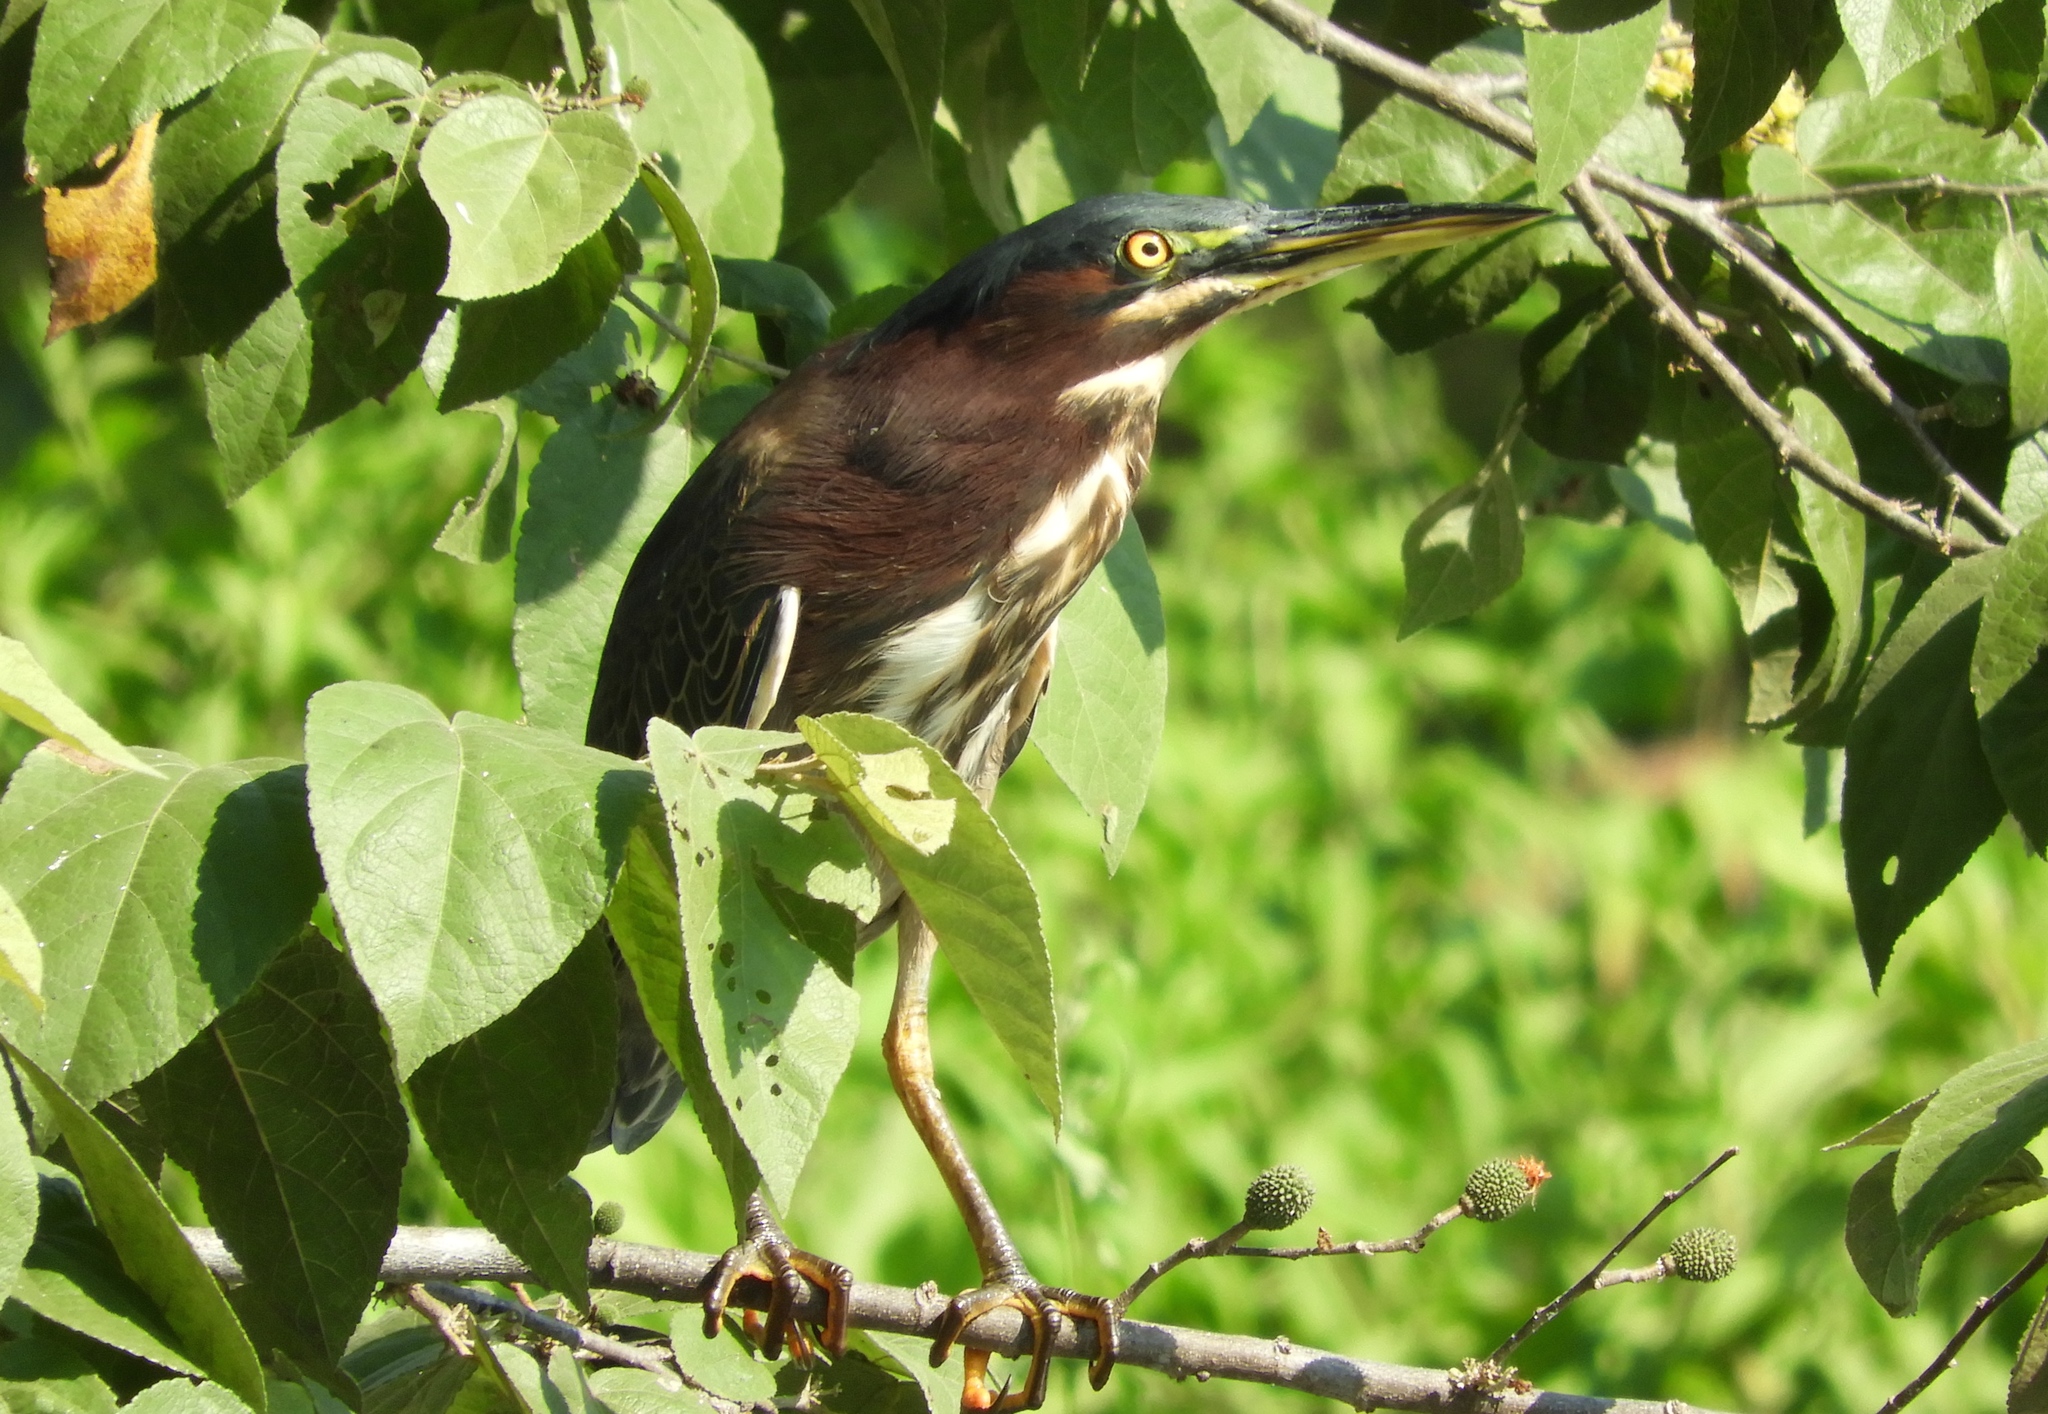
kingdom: Animalia
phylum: Chordata
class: Aves
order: Pelecaniformes
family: Ardeidae
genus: Butorides
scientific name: Butorides virescens
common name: Green heron
